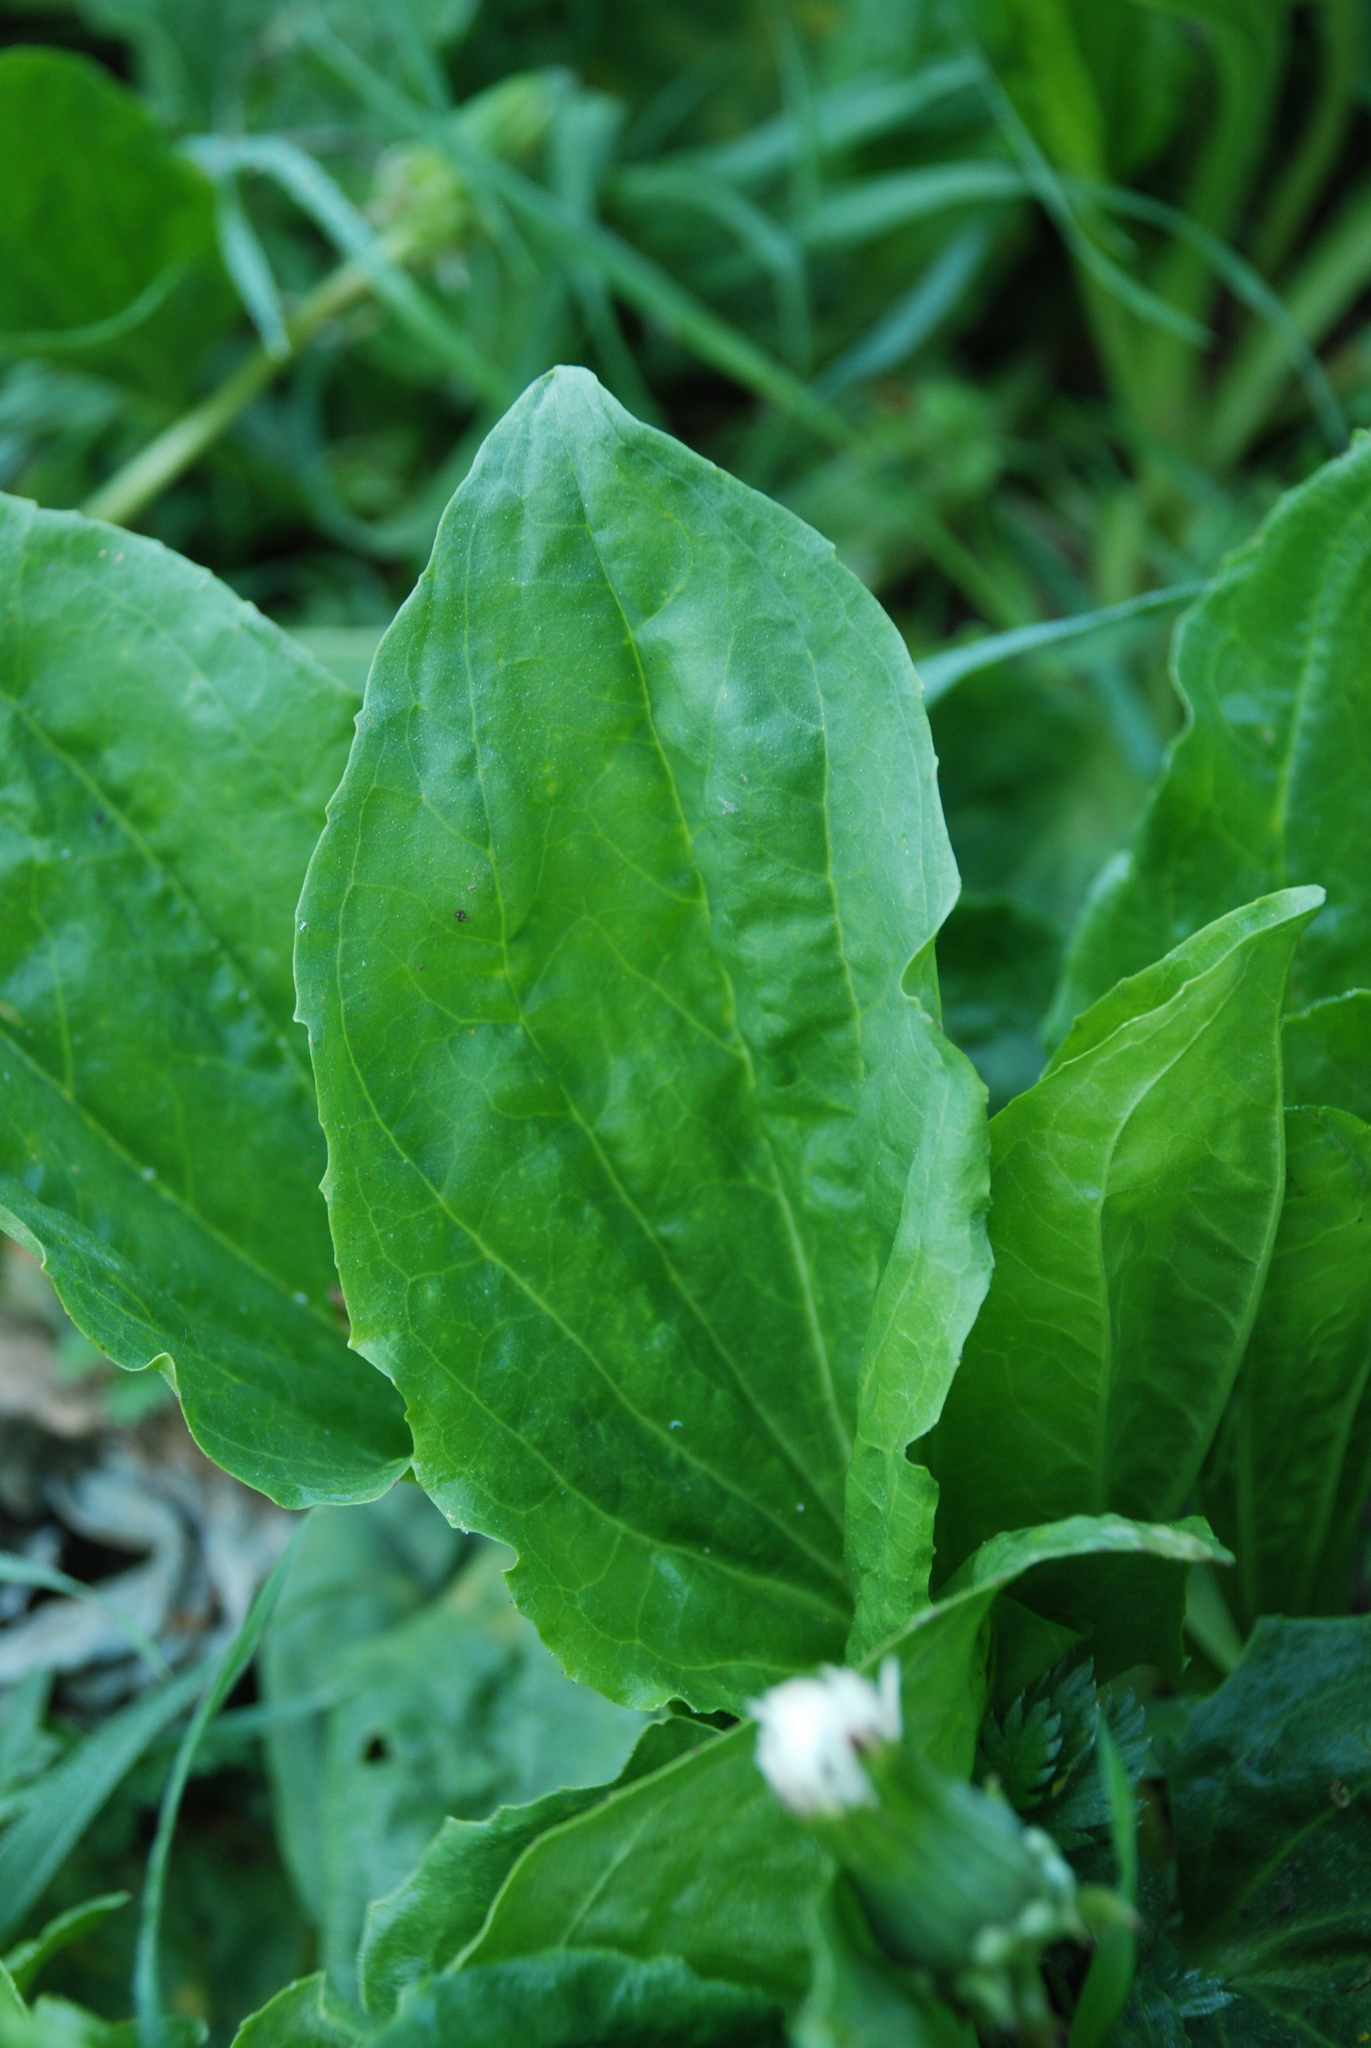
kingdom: Plantae
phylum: Tracheophyta
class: Magnoliopsida
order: Lamiales
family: Plantaginaceae
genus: Plantago
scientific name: Plantago major
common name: Common plantain
